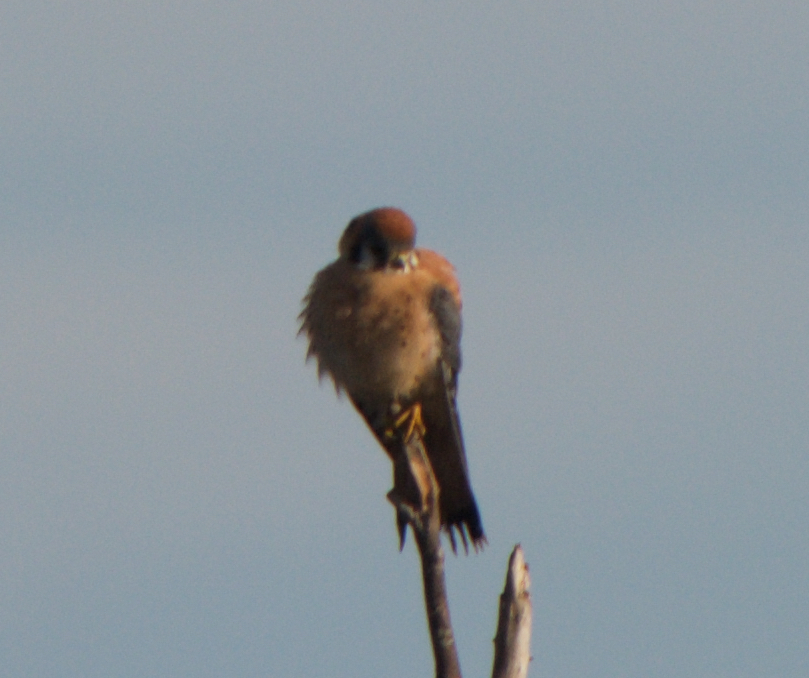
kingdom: Animalia
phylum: Chordata
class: Aves
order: Falconiformes
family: Falconidae
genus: Falco
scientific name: Falco sparverius
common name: American kestrel
